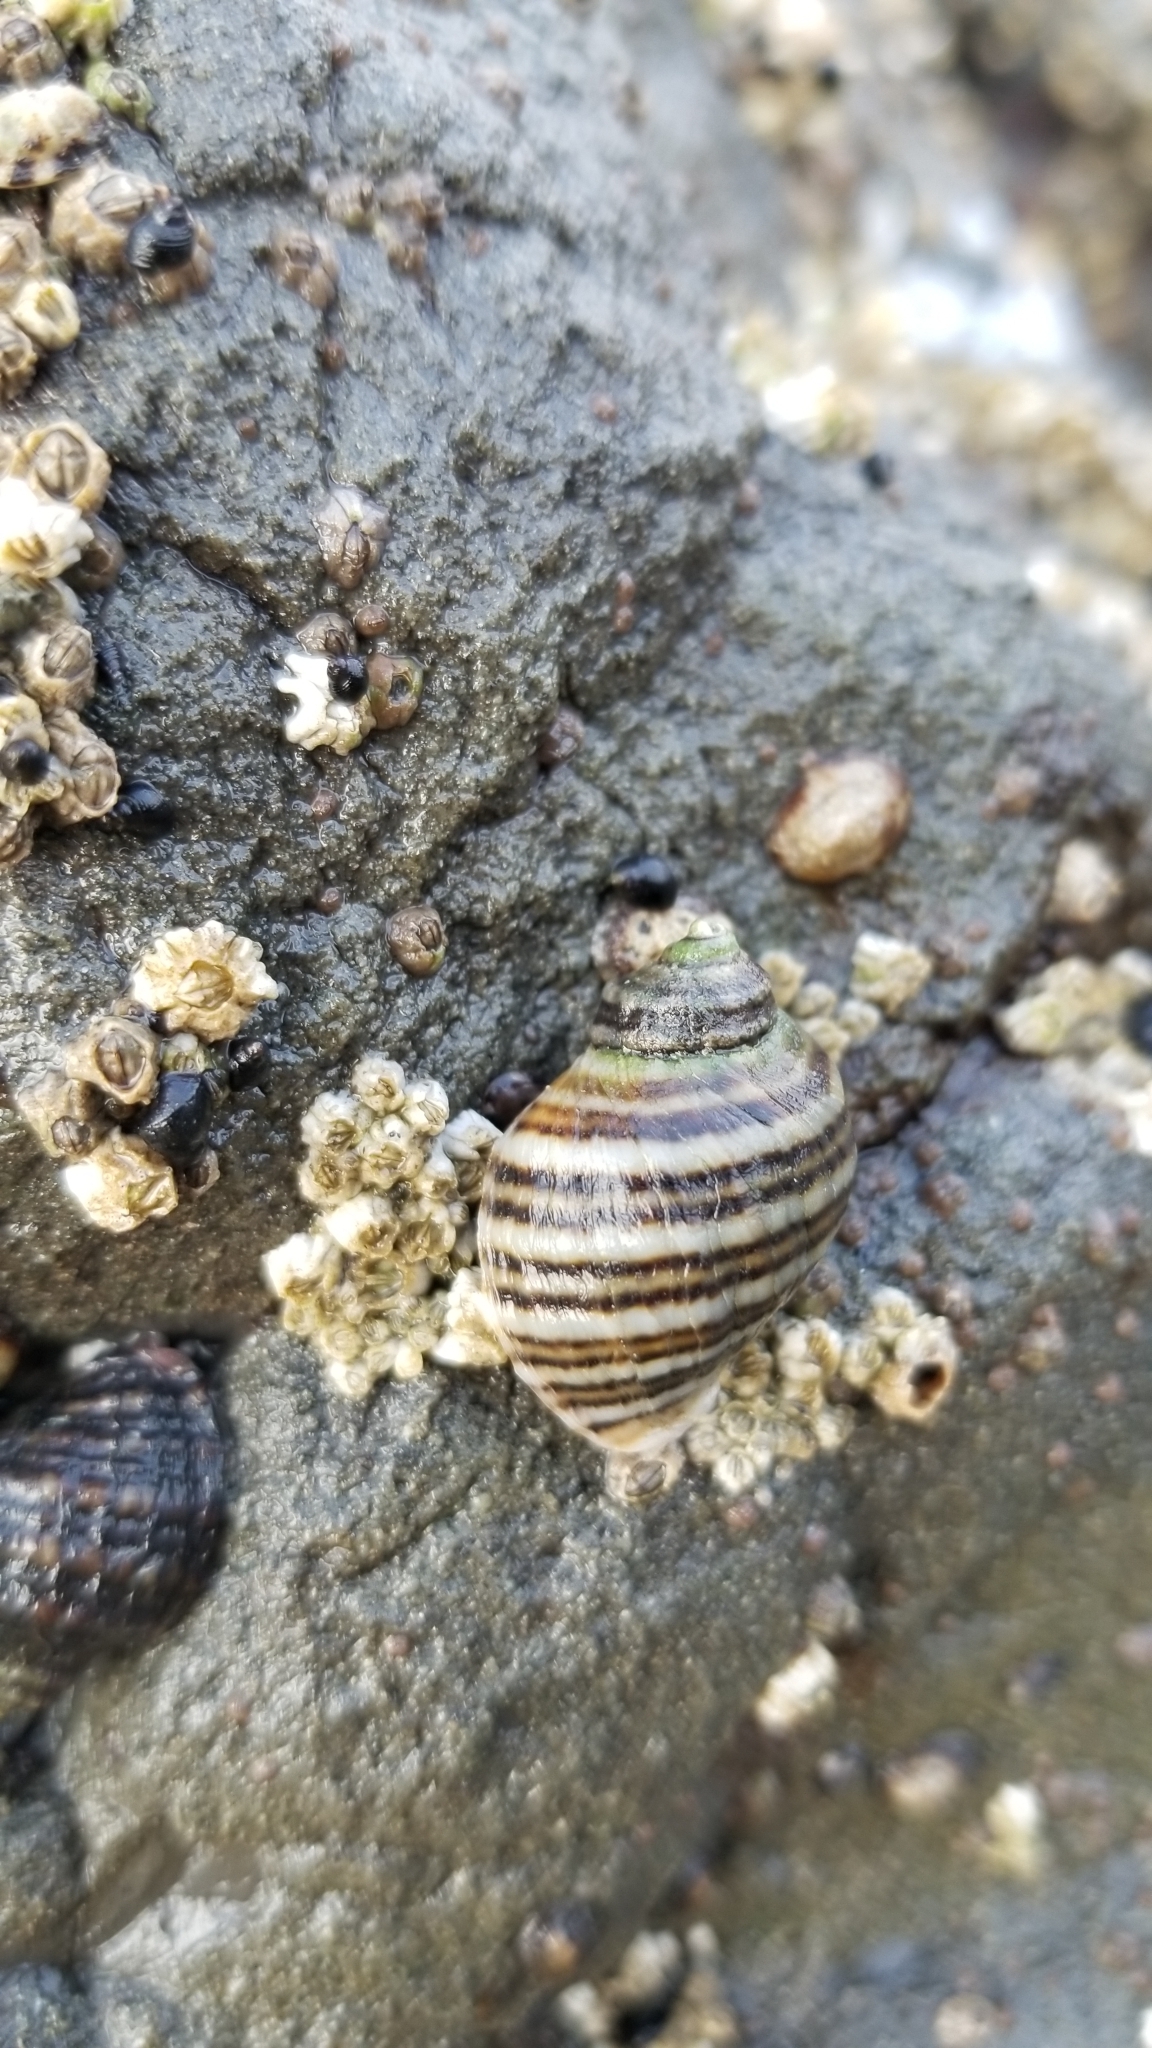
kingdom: Animalia
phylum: Mollusca
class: Gastropoda
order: Neogastropoda
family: Muricidae
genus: Nucella
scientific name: Nucella ostrina
